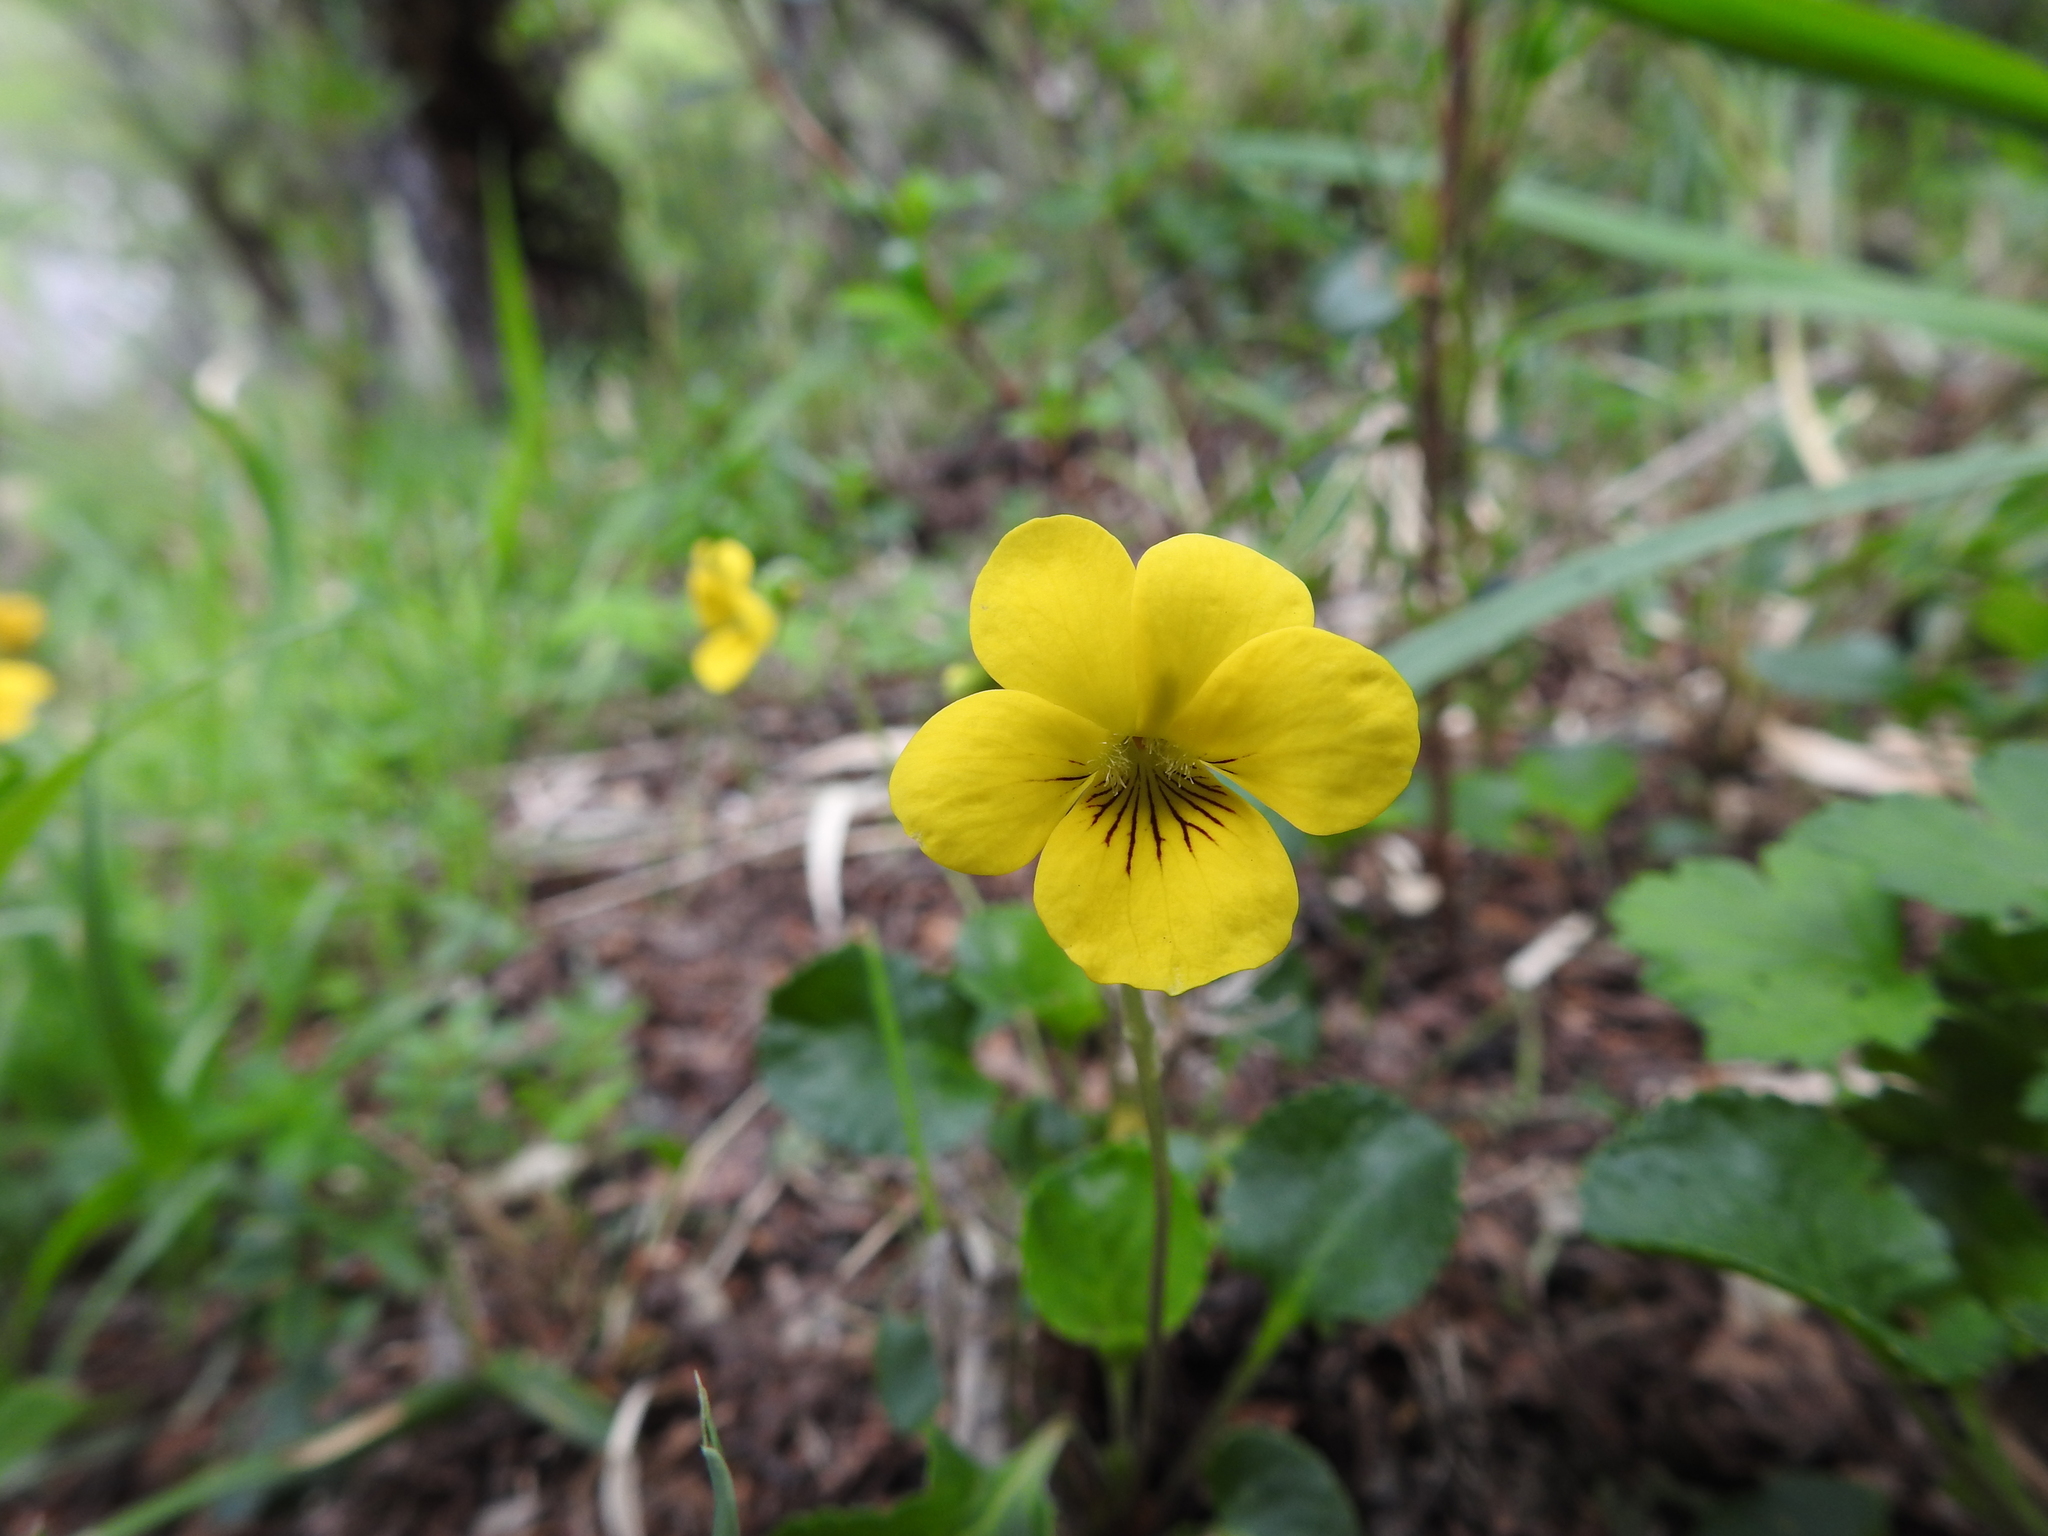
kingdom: Plantae
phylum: Tracheophyta
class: Magnoliopsida
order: Malpighiales
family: Violaceae
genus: Viola
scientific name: Viola reichei
